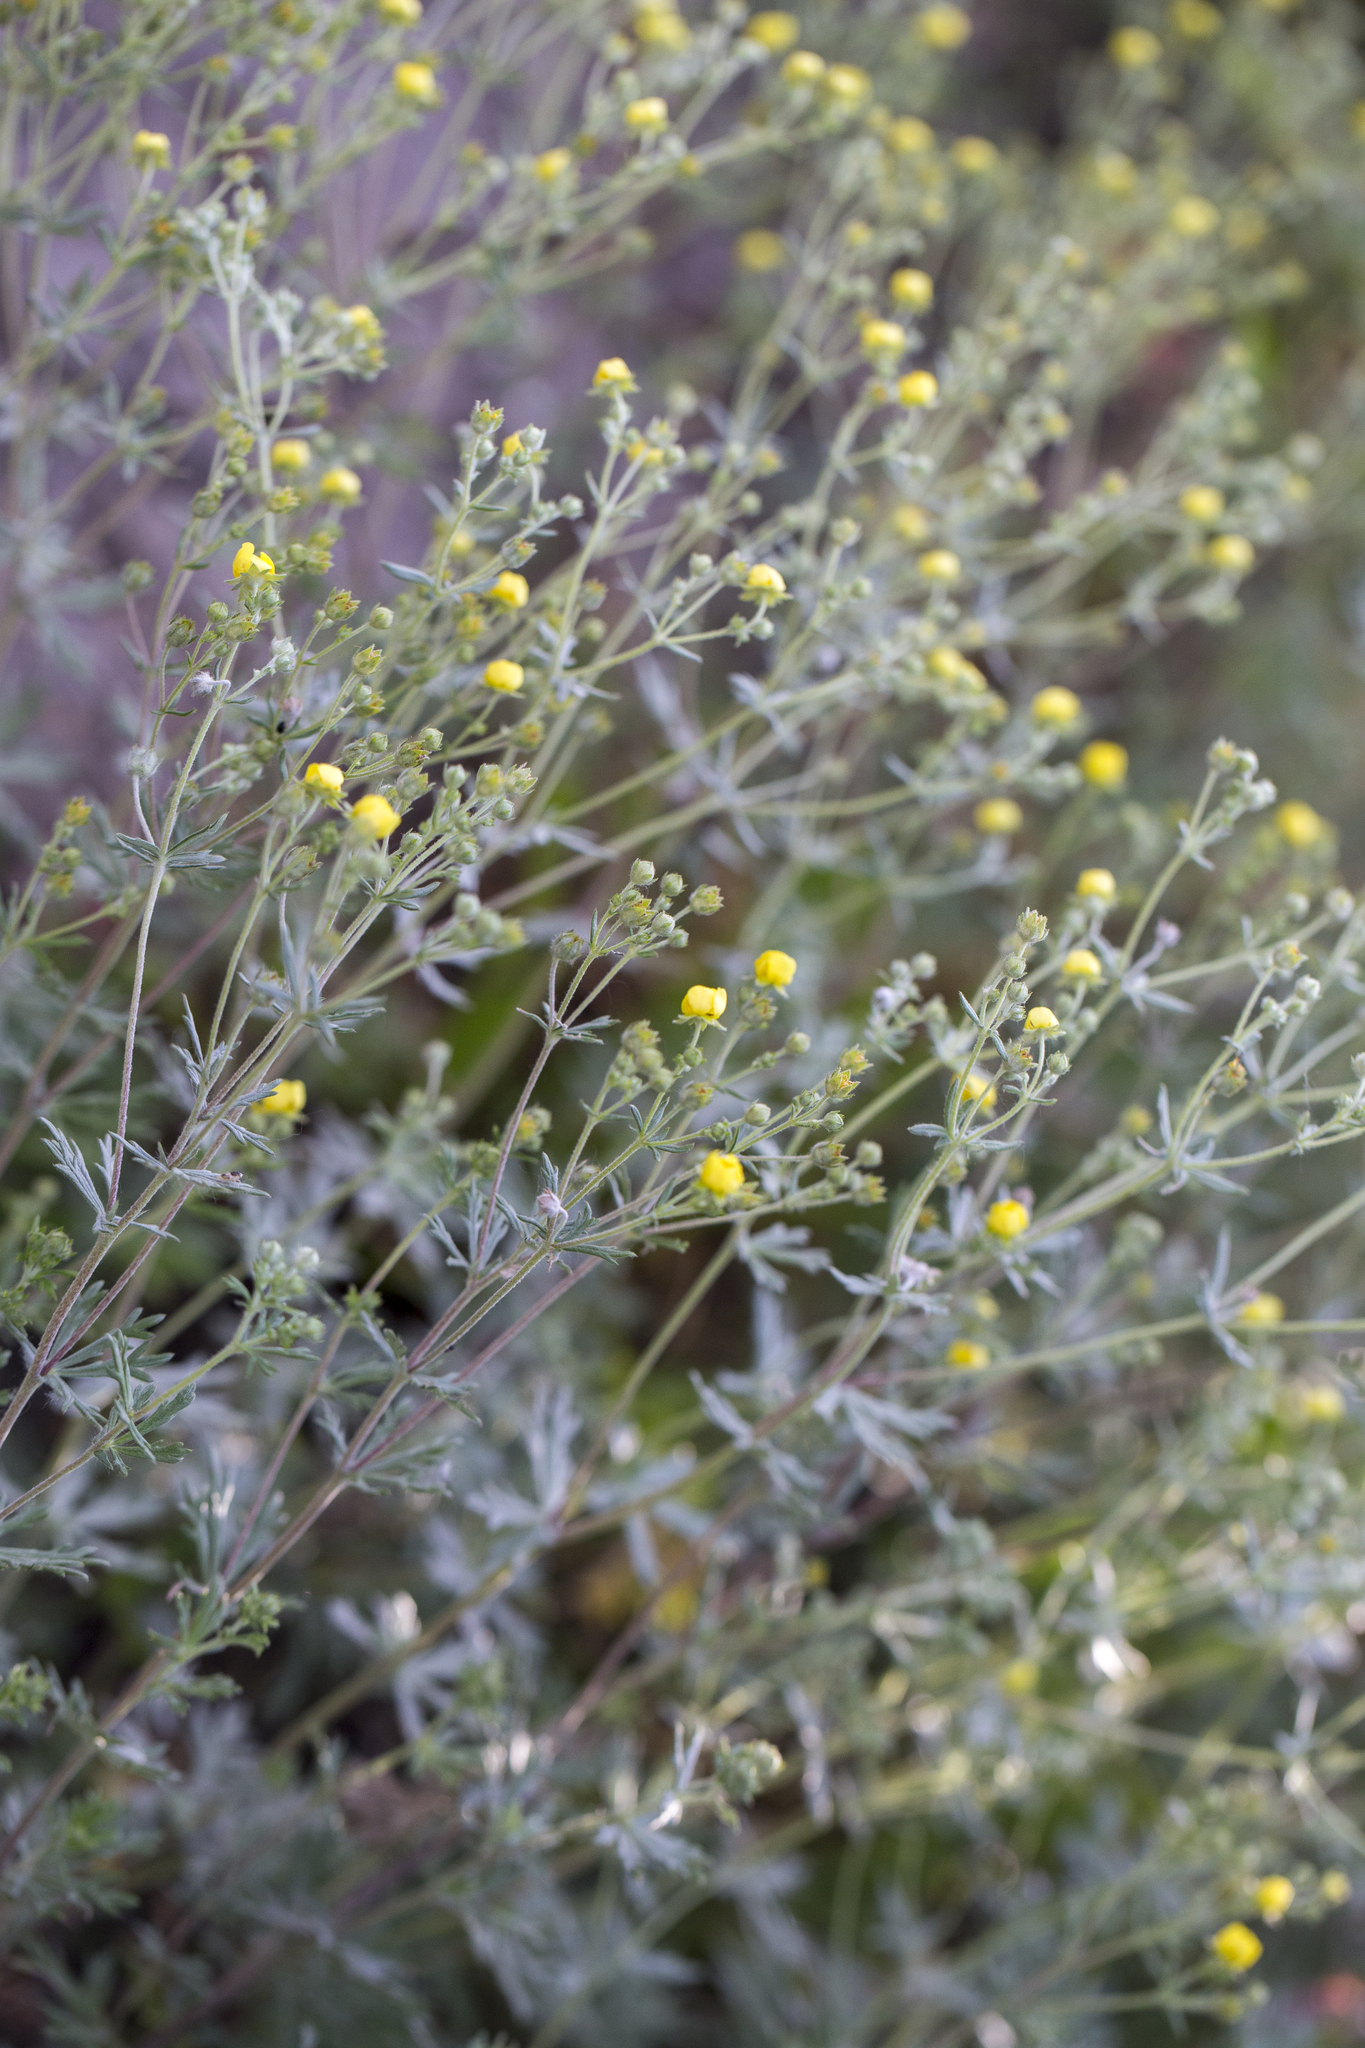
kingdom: Plantae
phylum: Tracheophyta
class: Magnoliopsida
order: Rosales
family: Rosaceae
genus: Potentilla
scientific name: Potentilla argentea
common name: Hoary cinquefoil
